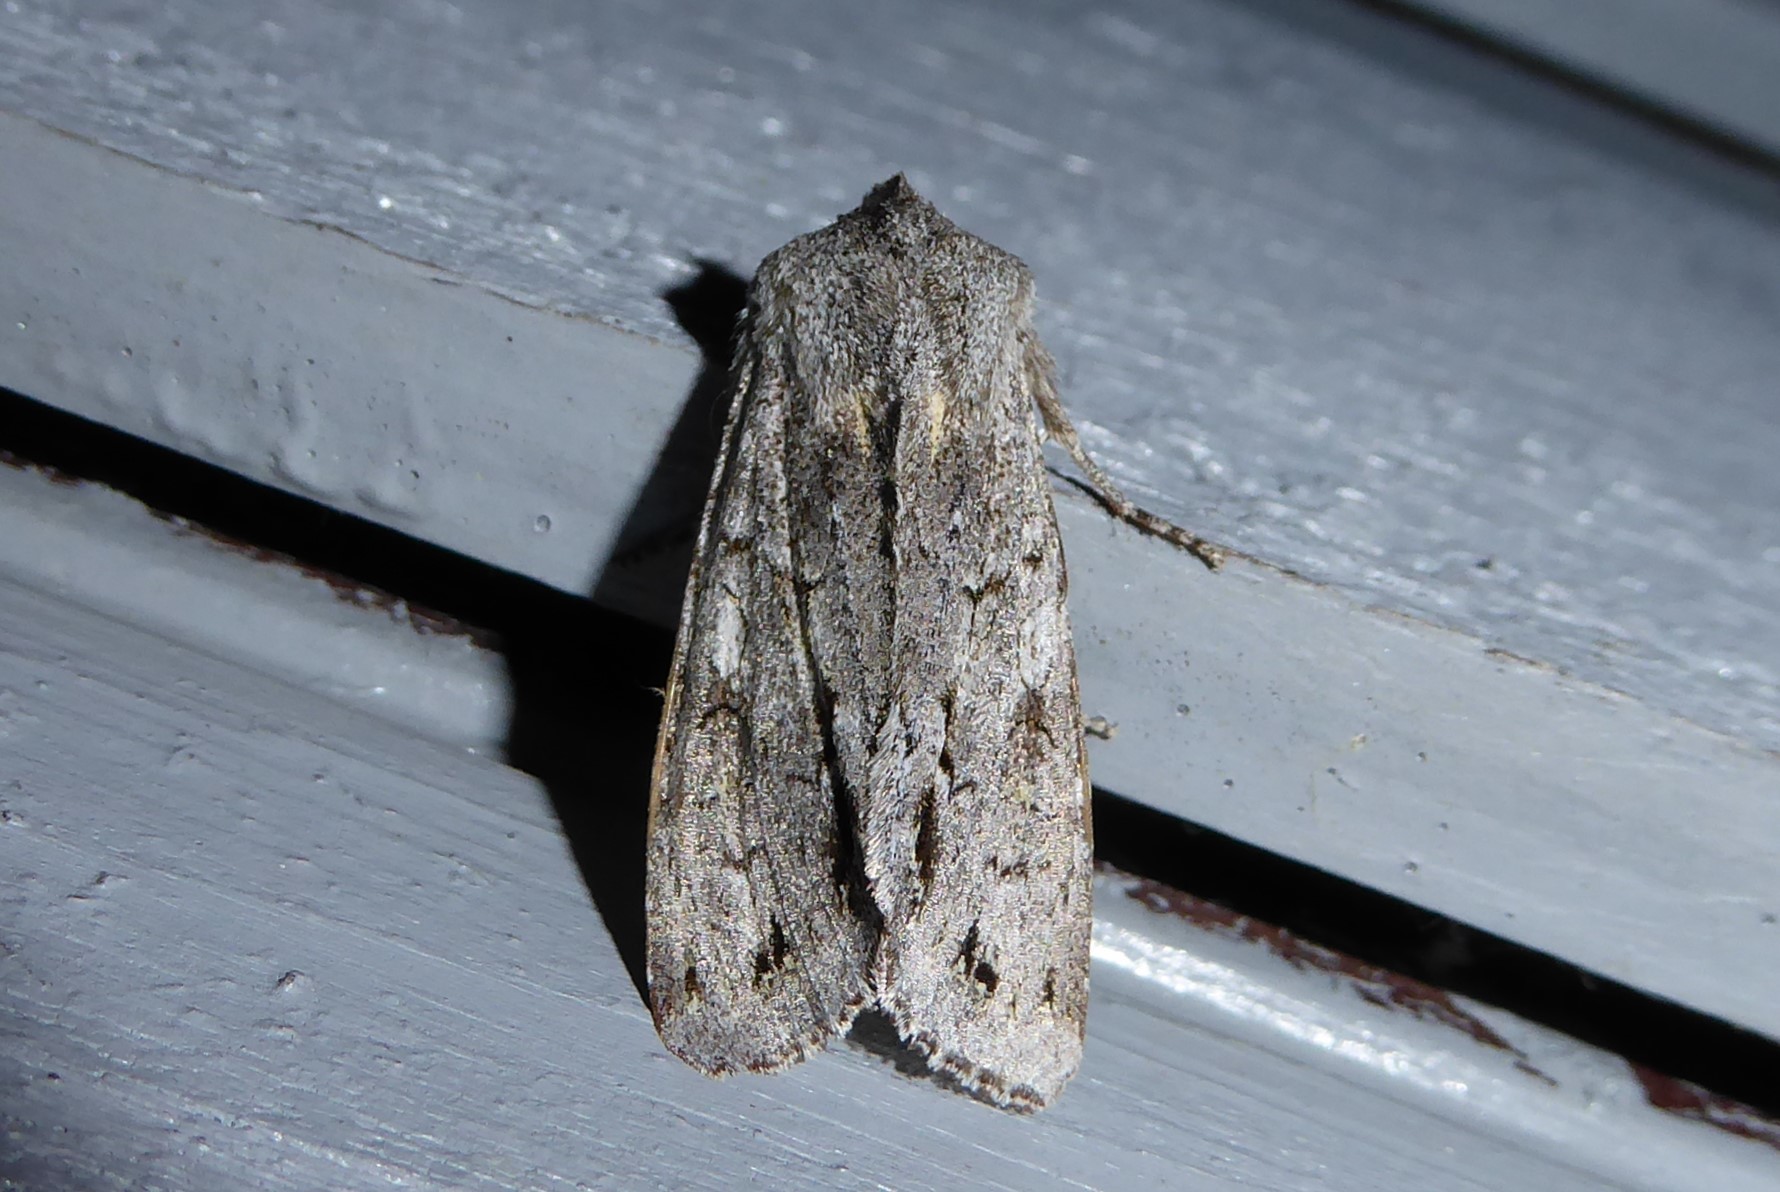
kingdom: Animalia
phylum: Arthropoda
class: Insecta
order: Lepidoptera
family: Noctuidae
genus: Ichneutica
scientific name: Ichneutica
